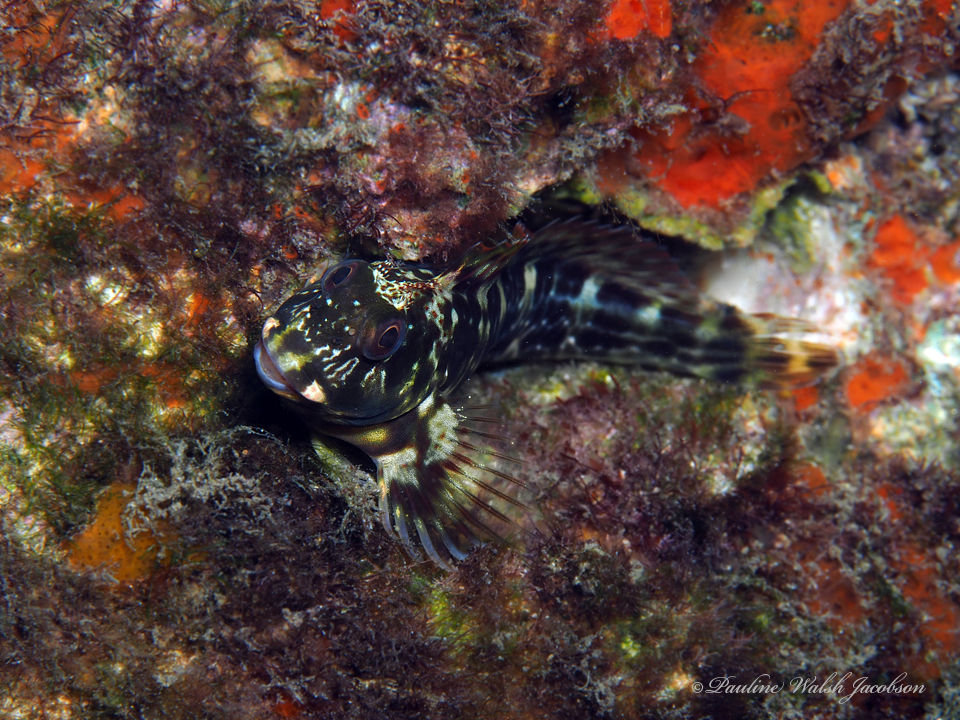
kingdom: Animalia
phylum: Chordata
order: Perciformes
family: Blenniidae
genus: Scartella
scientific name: Scartella cristata
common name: Molly miller
